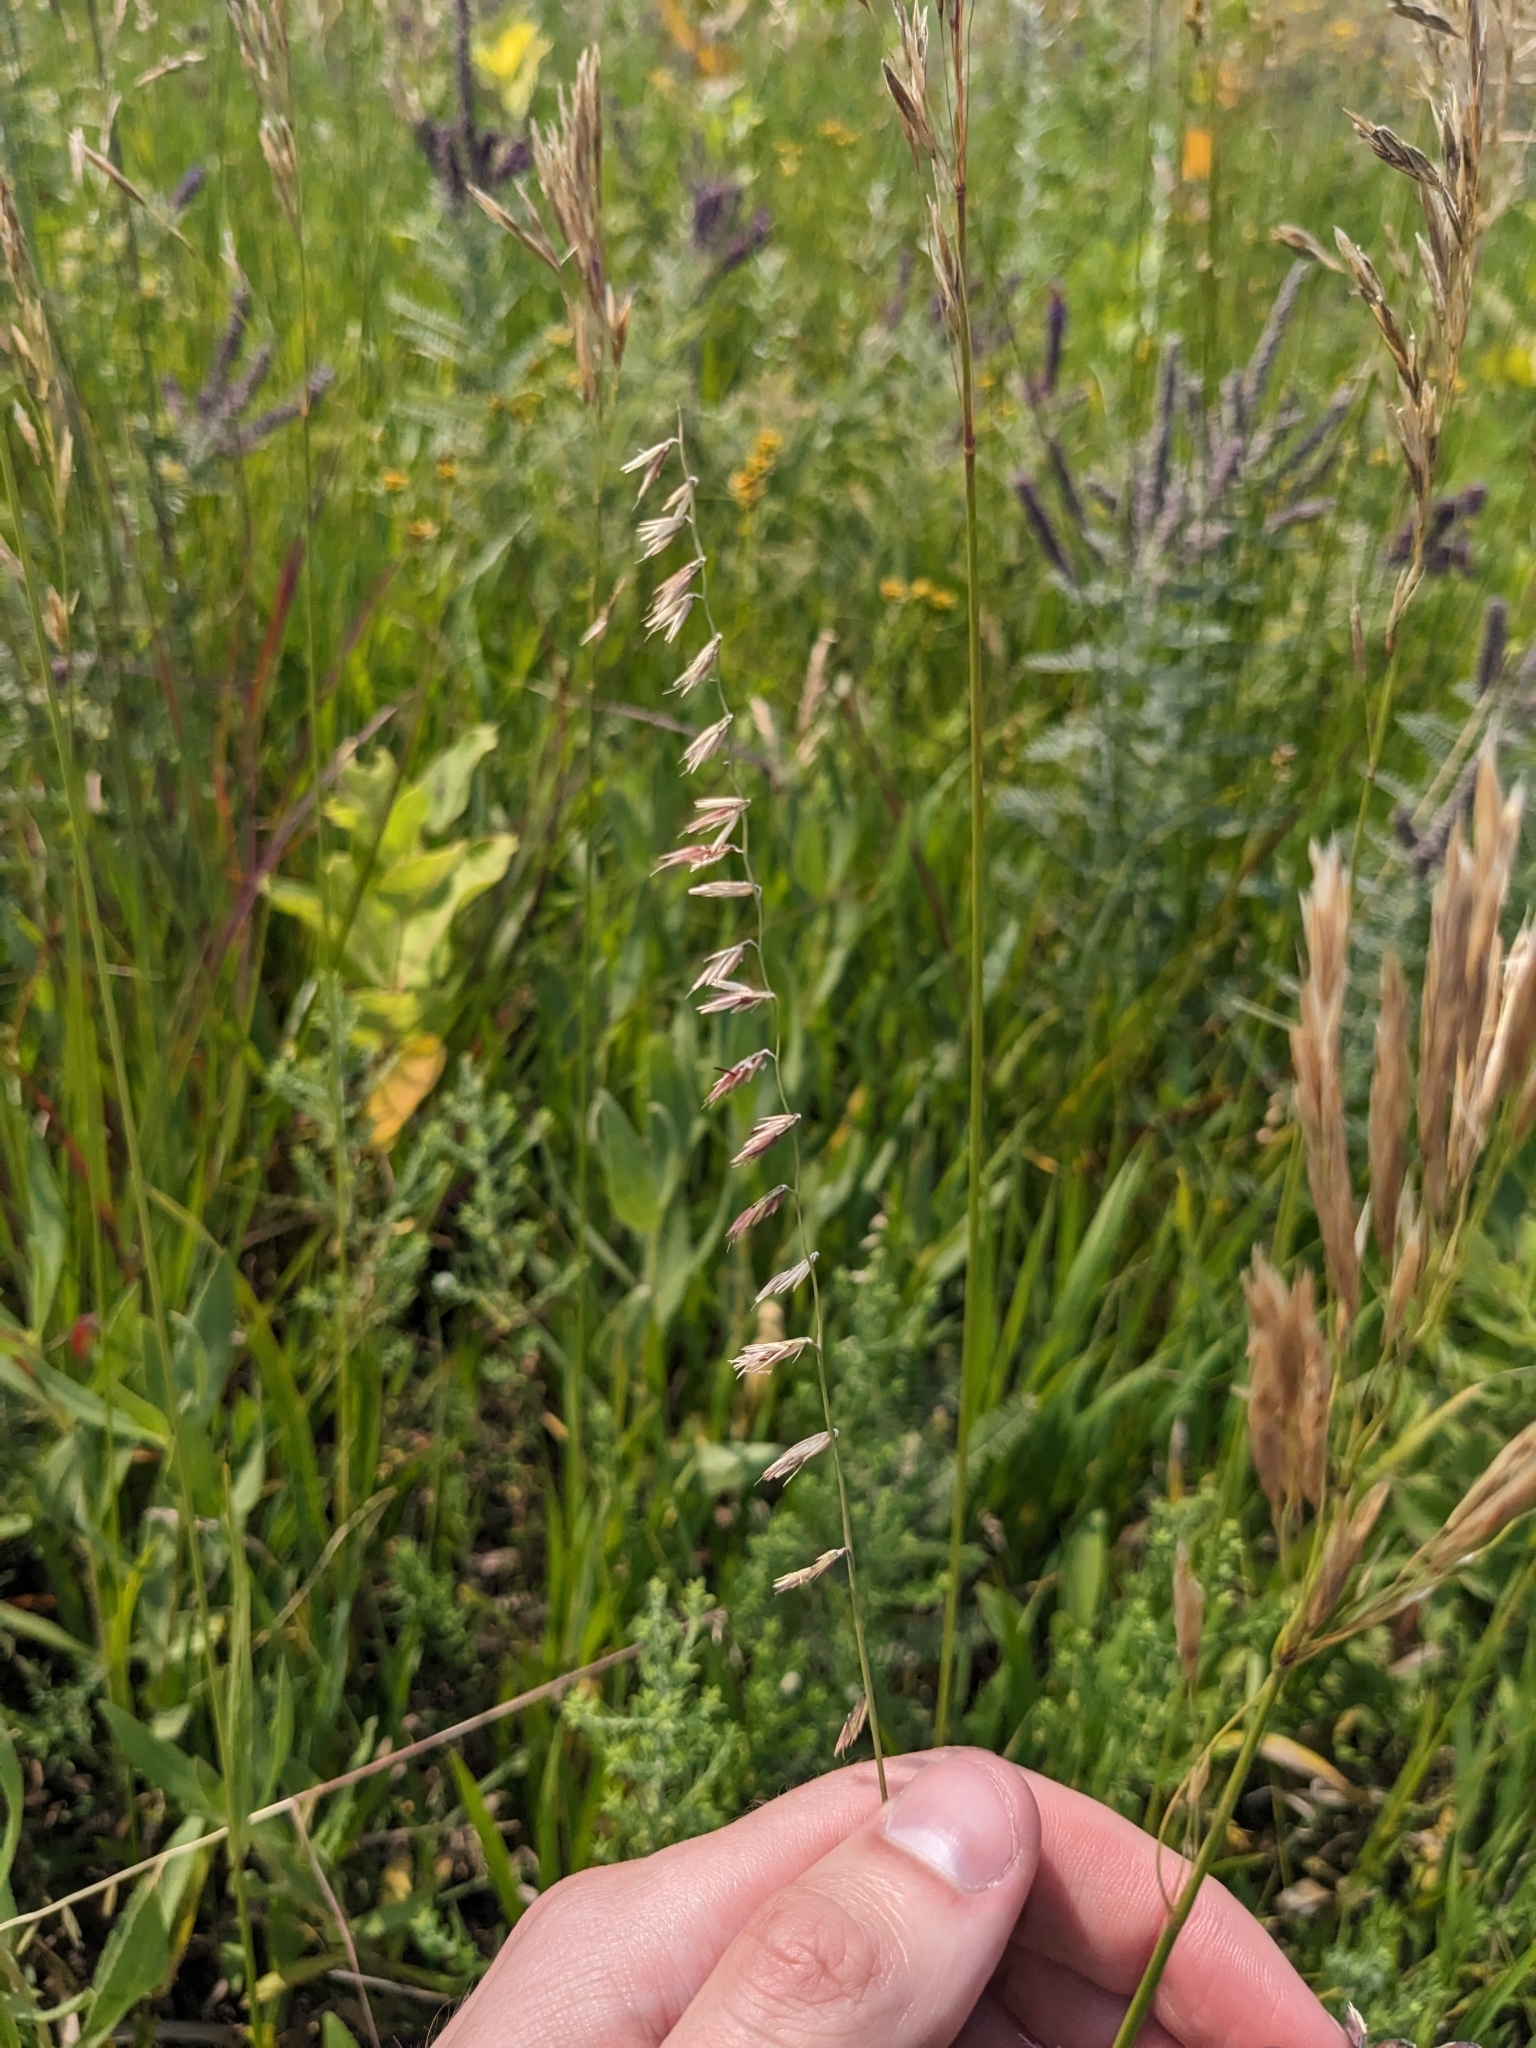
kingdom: Plantae
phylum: Tracheophyta
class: Liliopsida
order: Poales
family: Poaceae
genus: Bouteloua
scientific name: Bouteloua curtipendula
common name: Side-oats grama
